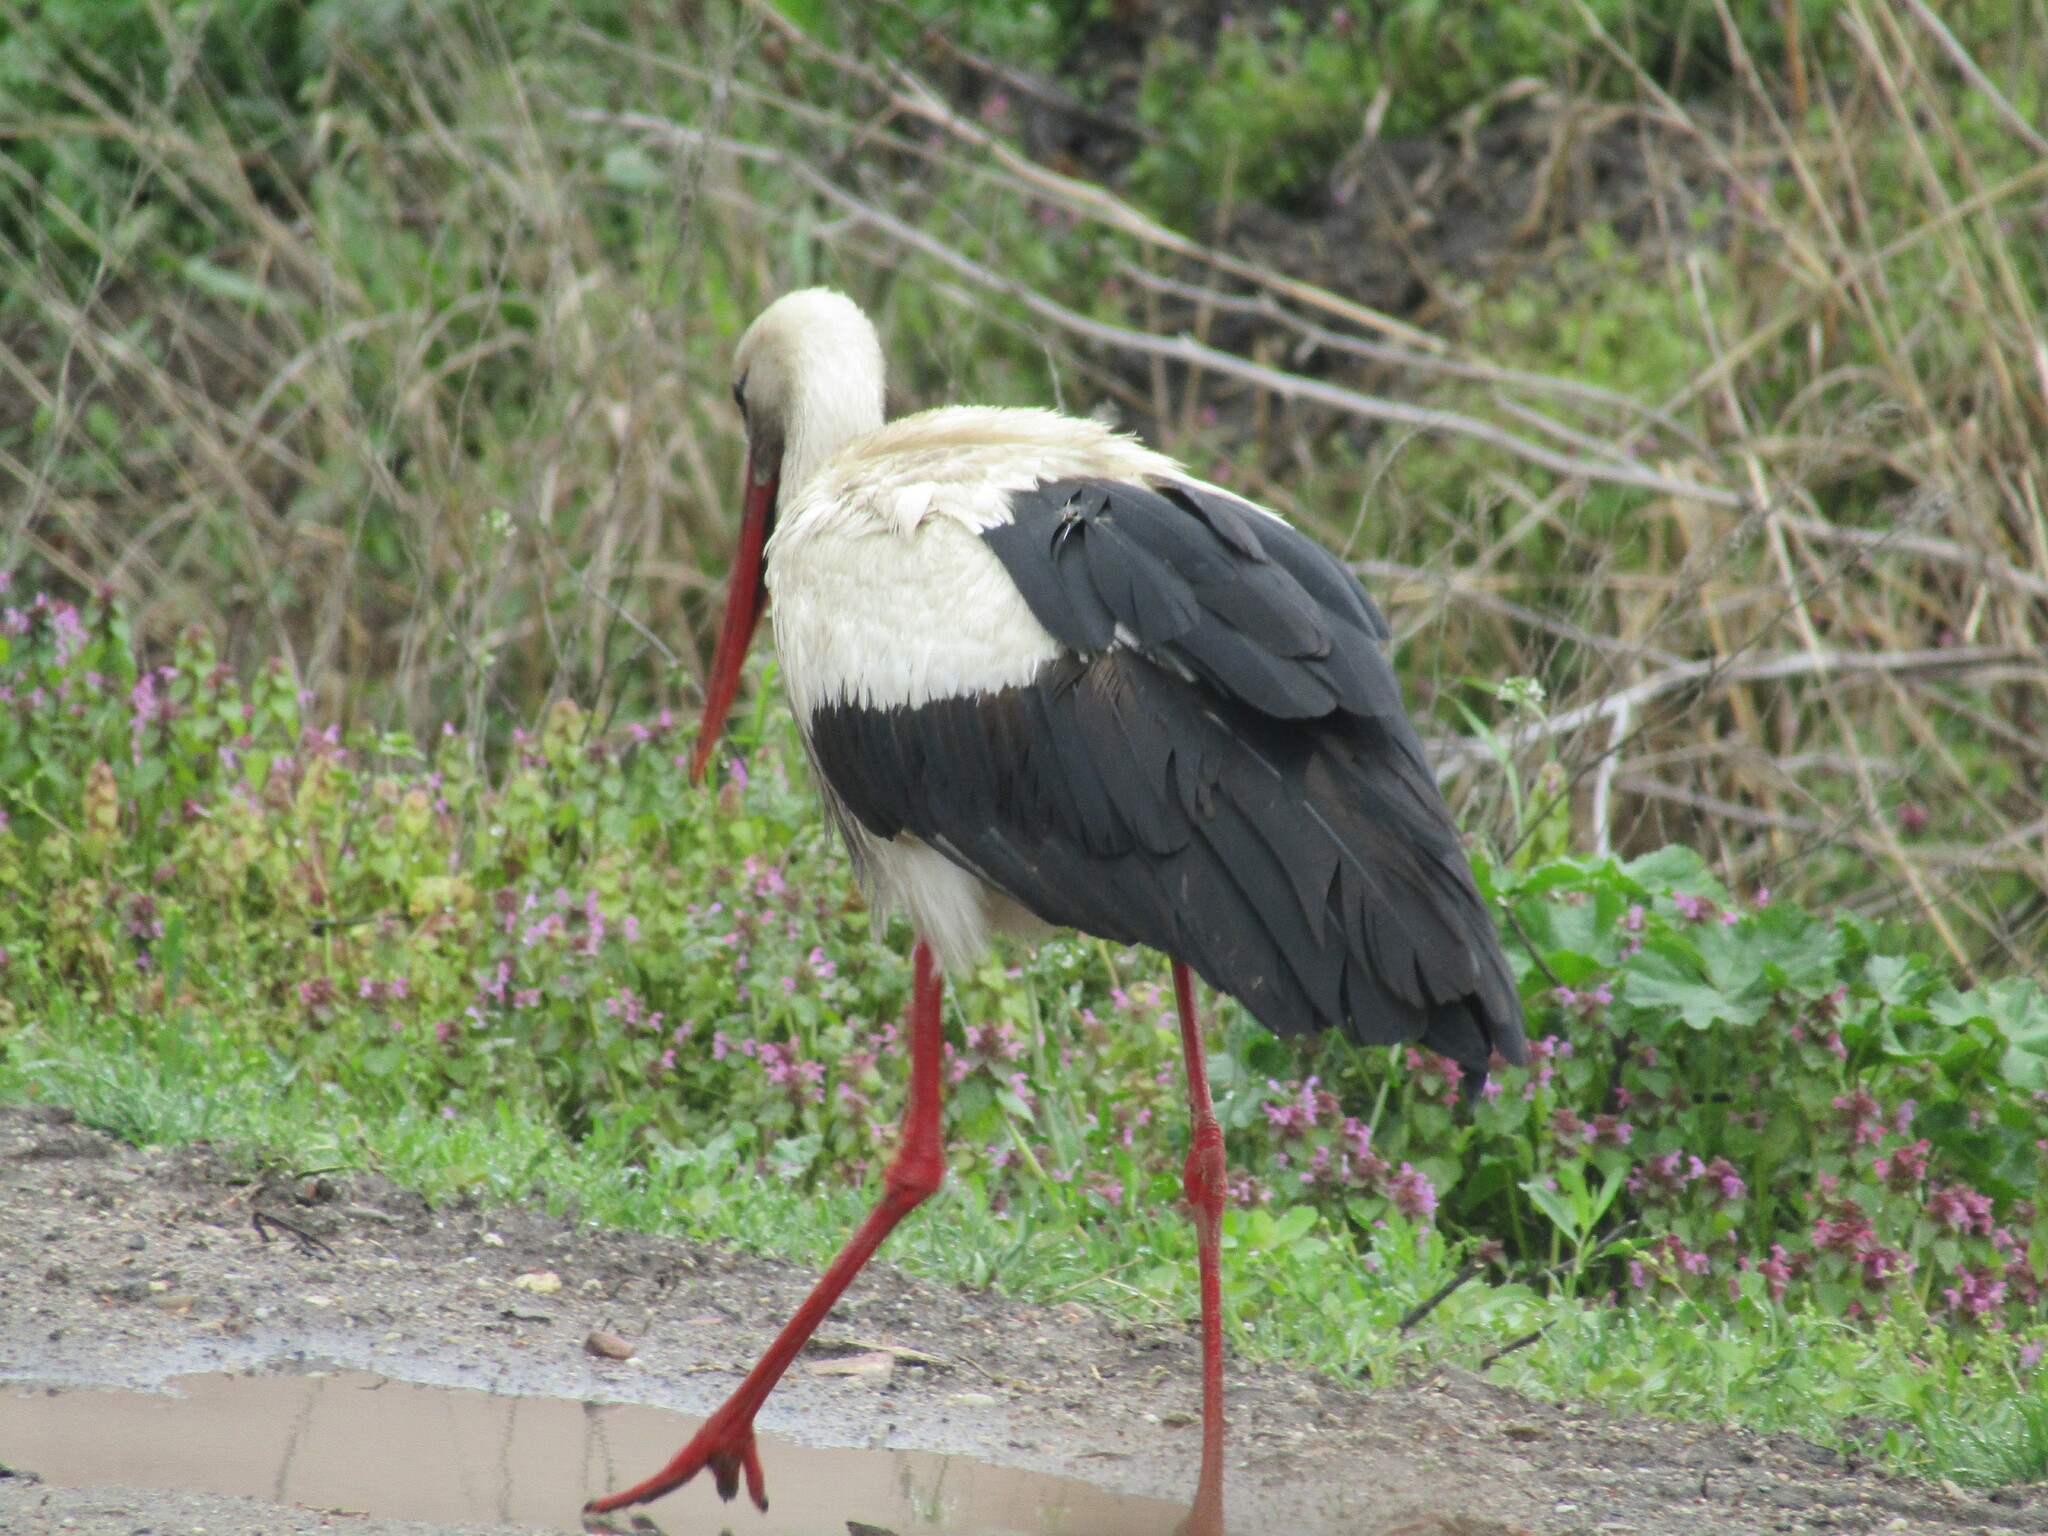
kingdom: Animalia
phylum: Chordata
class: Aves
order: Ciconiiformes
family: Ciconiidae
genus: Ciconia
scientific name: Ciconia ciconia
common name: White stork
